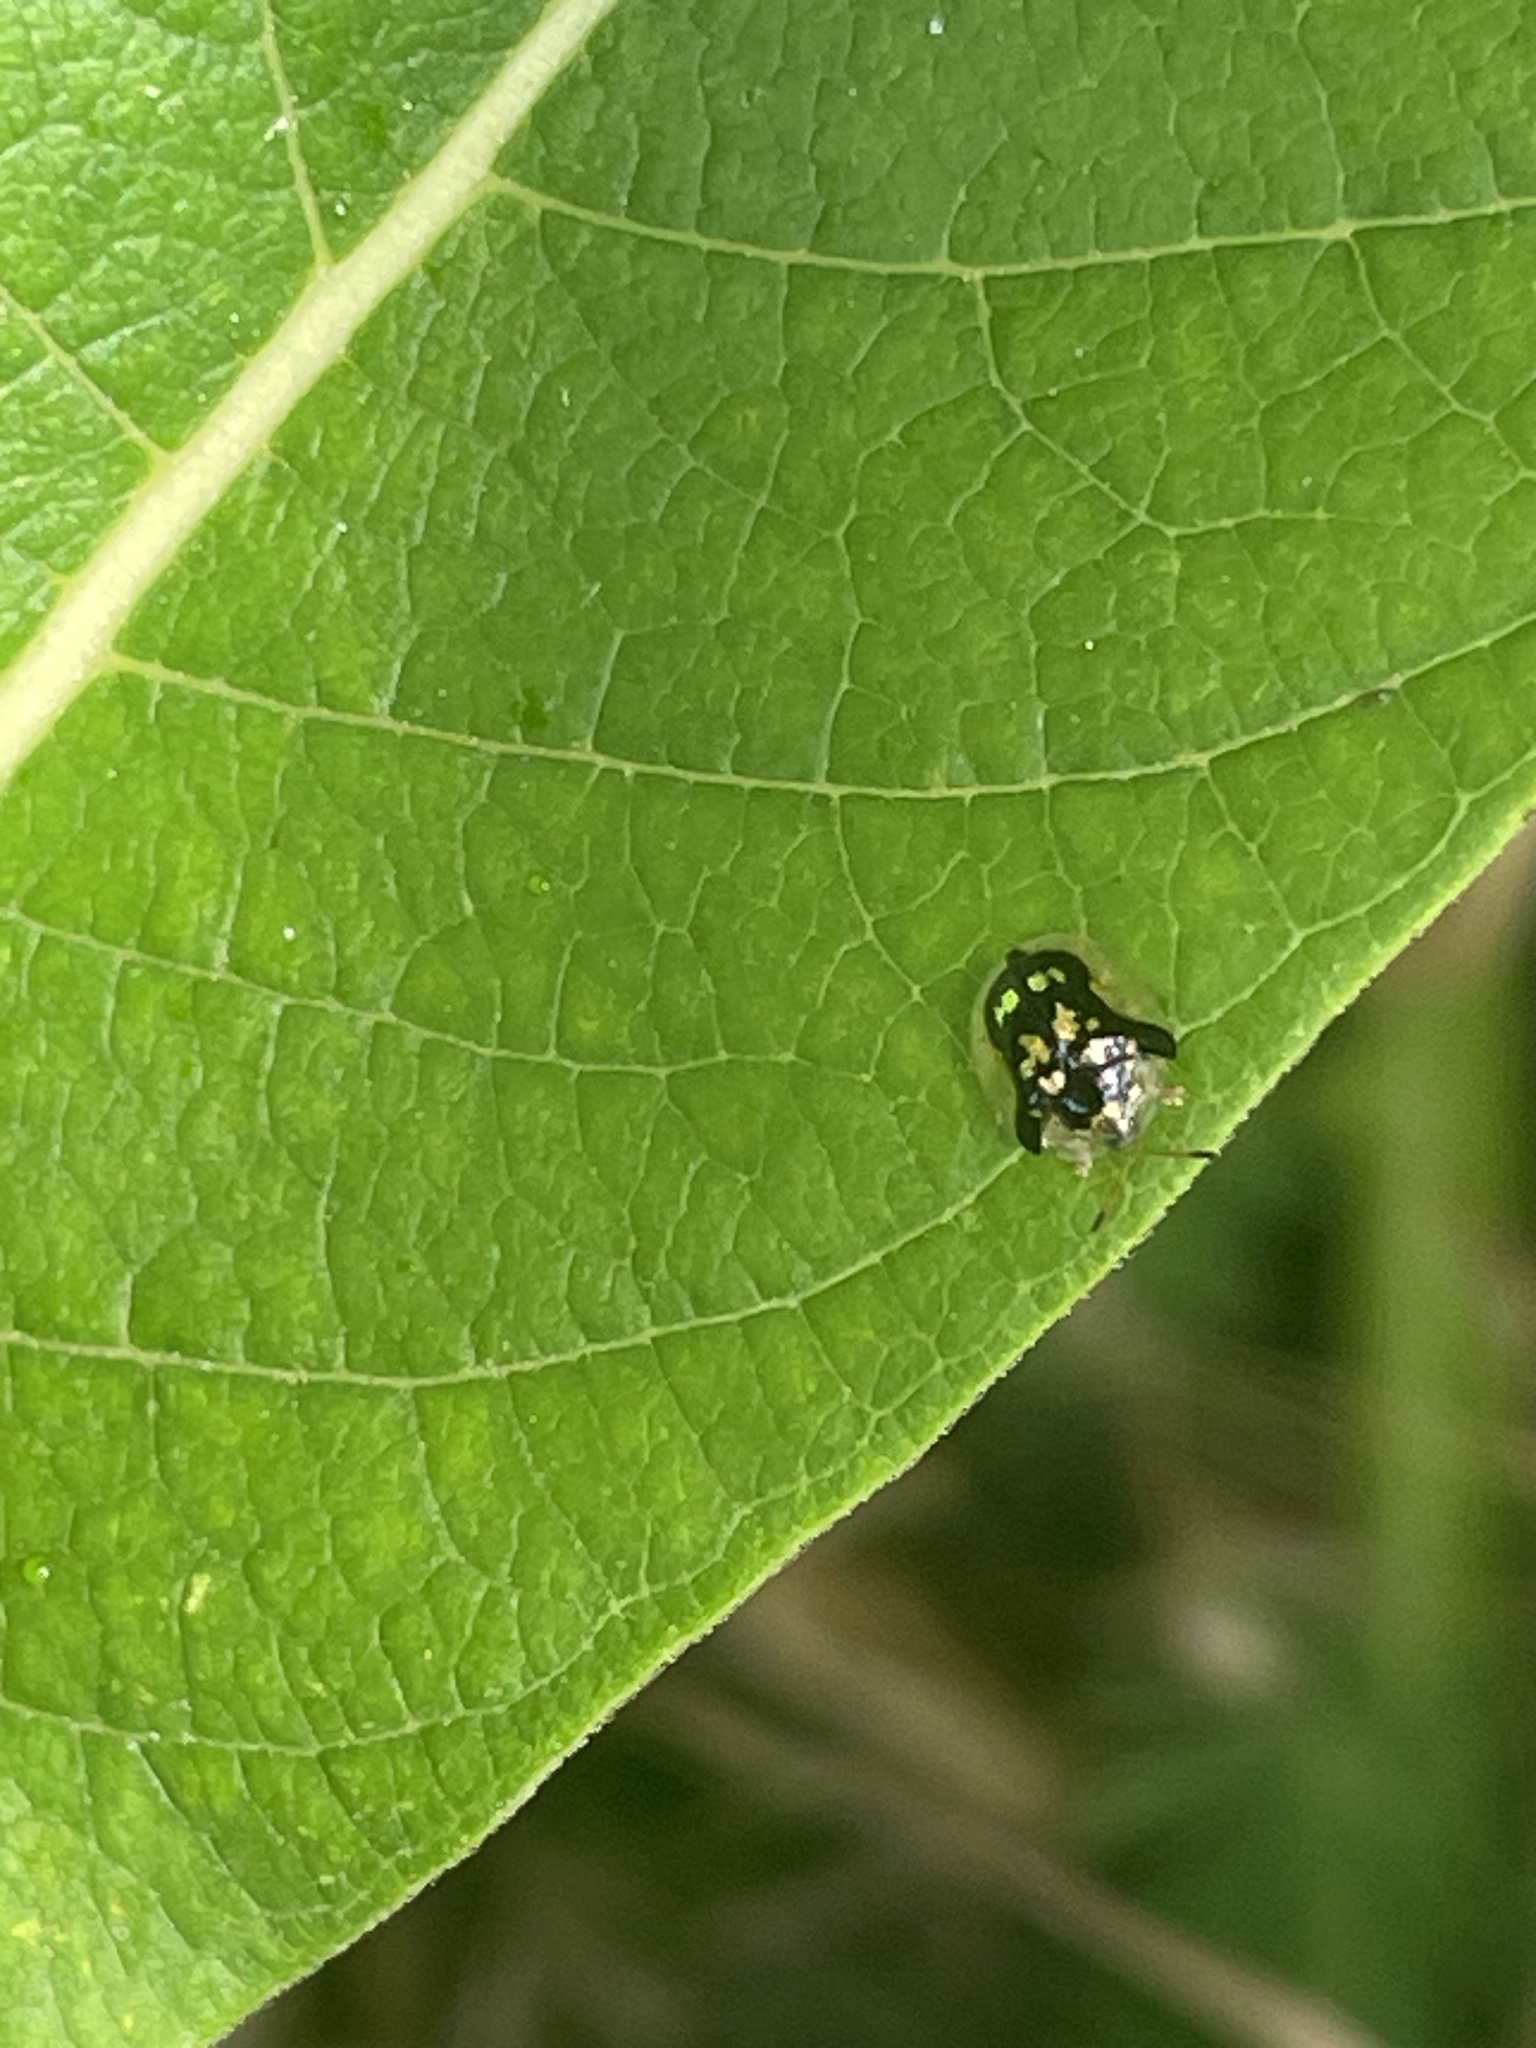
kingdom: Animalia
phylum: Arthropoda
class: Insecta
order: Coleoptera
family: Chrysomelidae
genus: Deloyala
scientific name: Deloyala guttata
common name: Mottled tortoise beetle
